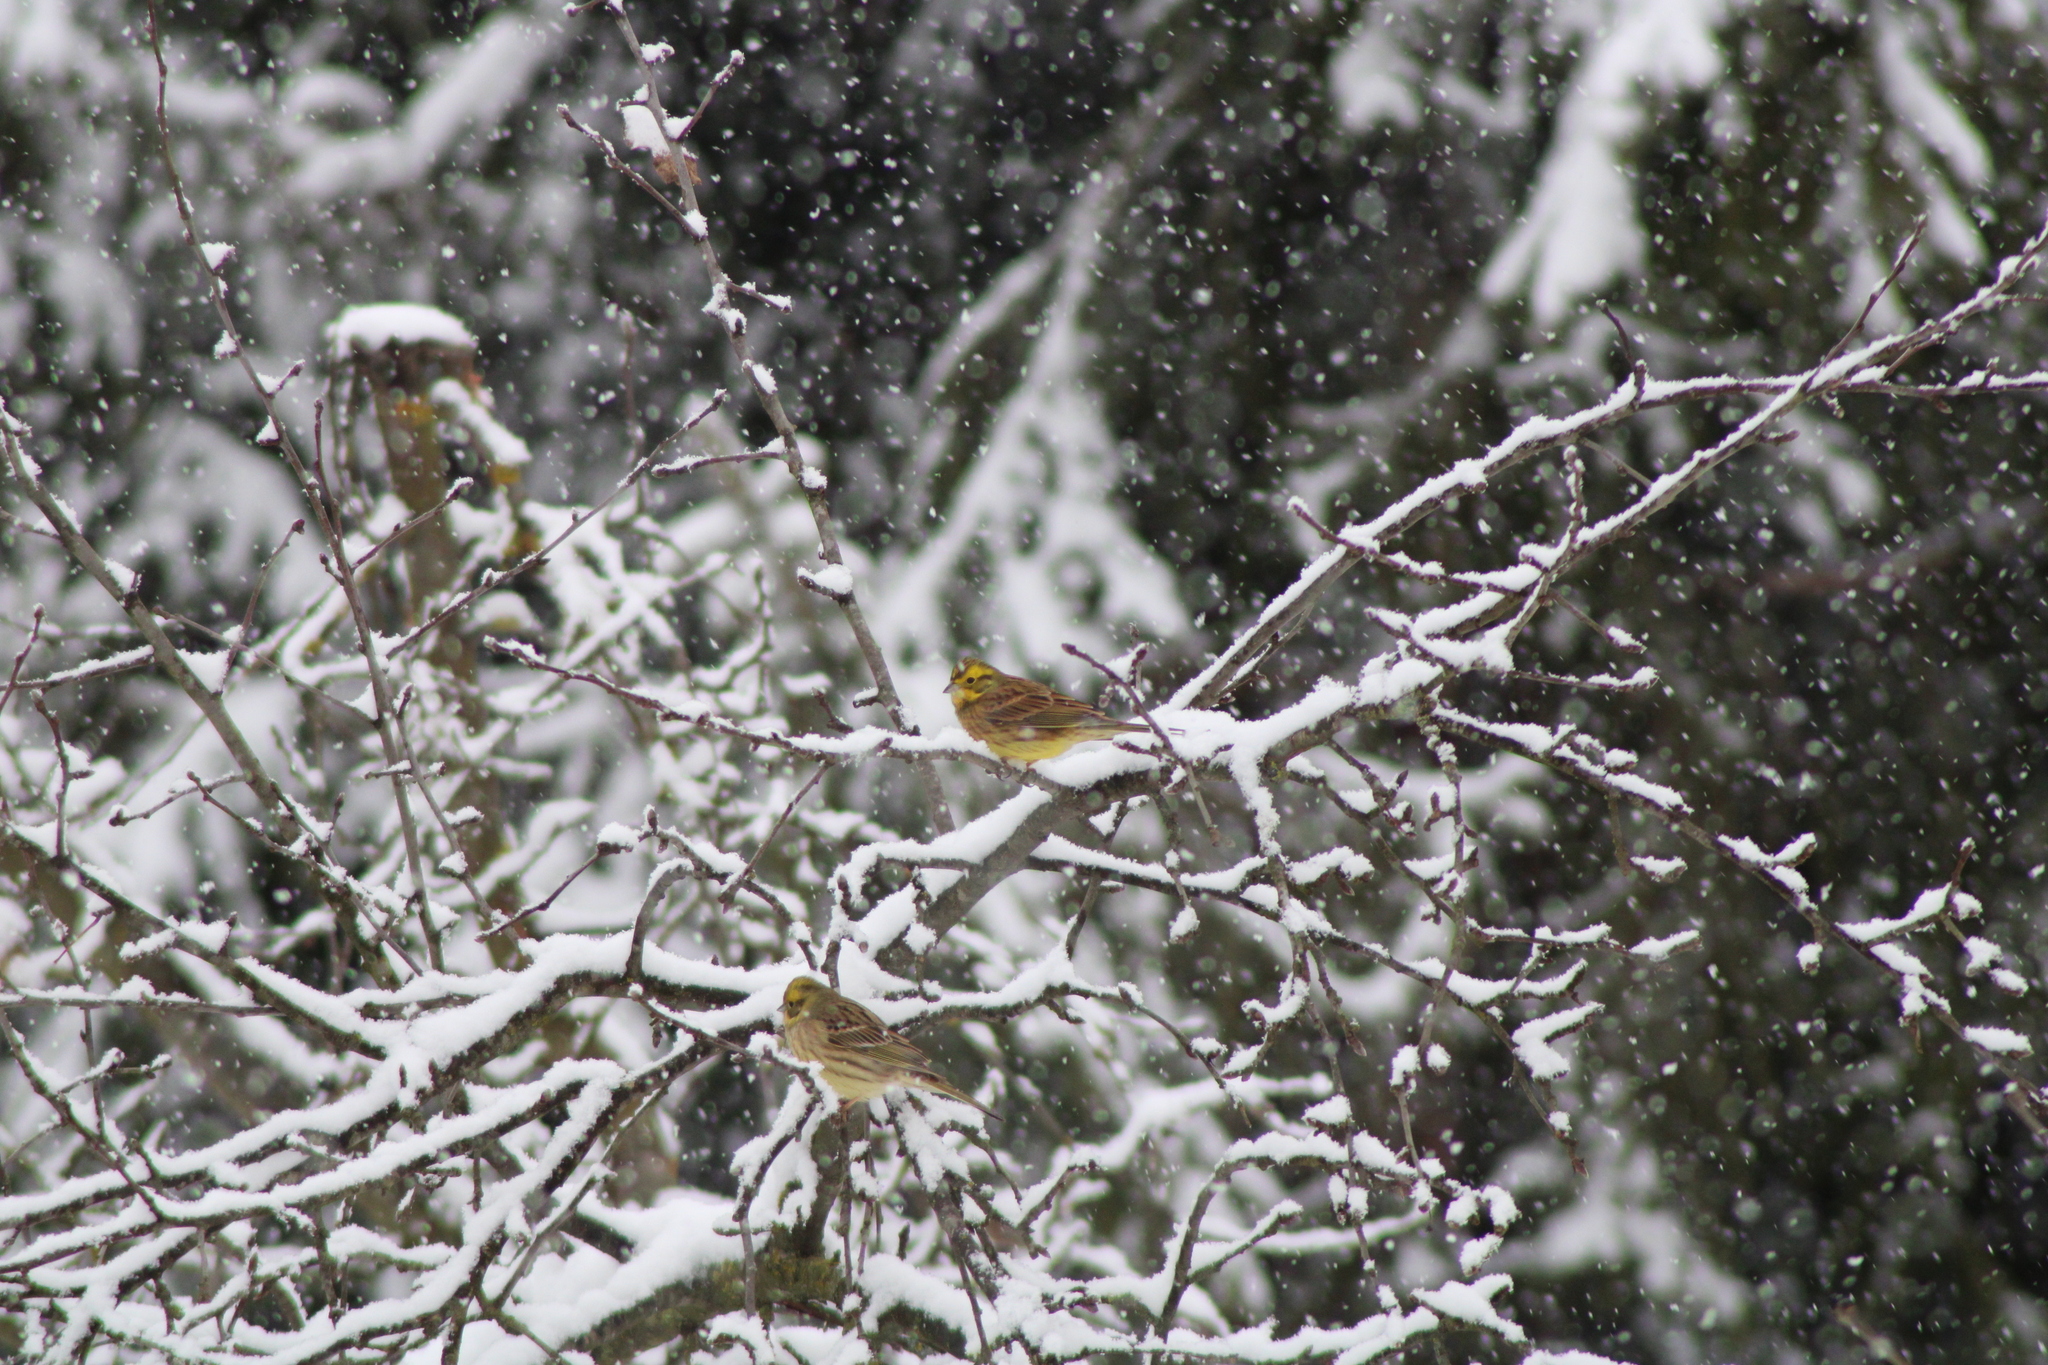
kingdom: Animalia
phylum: Chordata
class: Aves
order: Passeriformes
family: Emberizidae
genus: Emberiza
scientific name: Emberiza citrinella
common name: Yellowhammer
